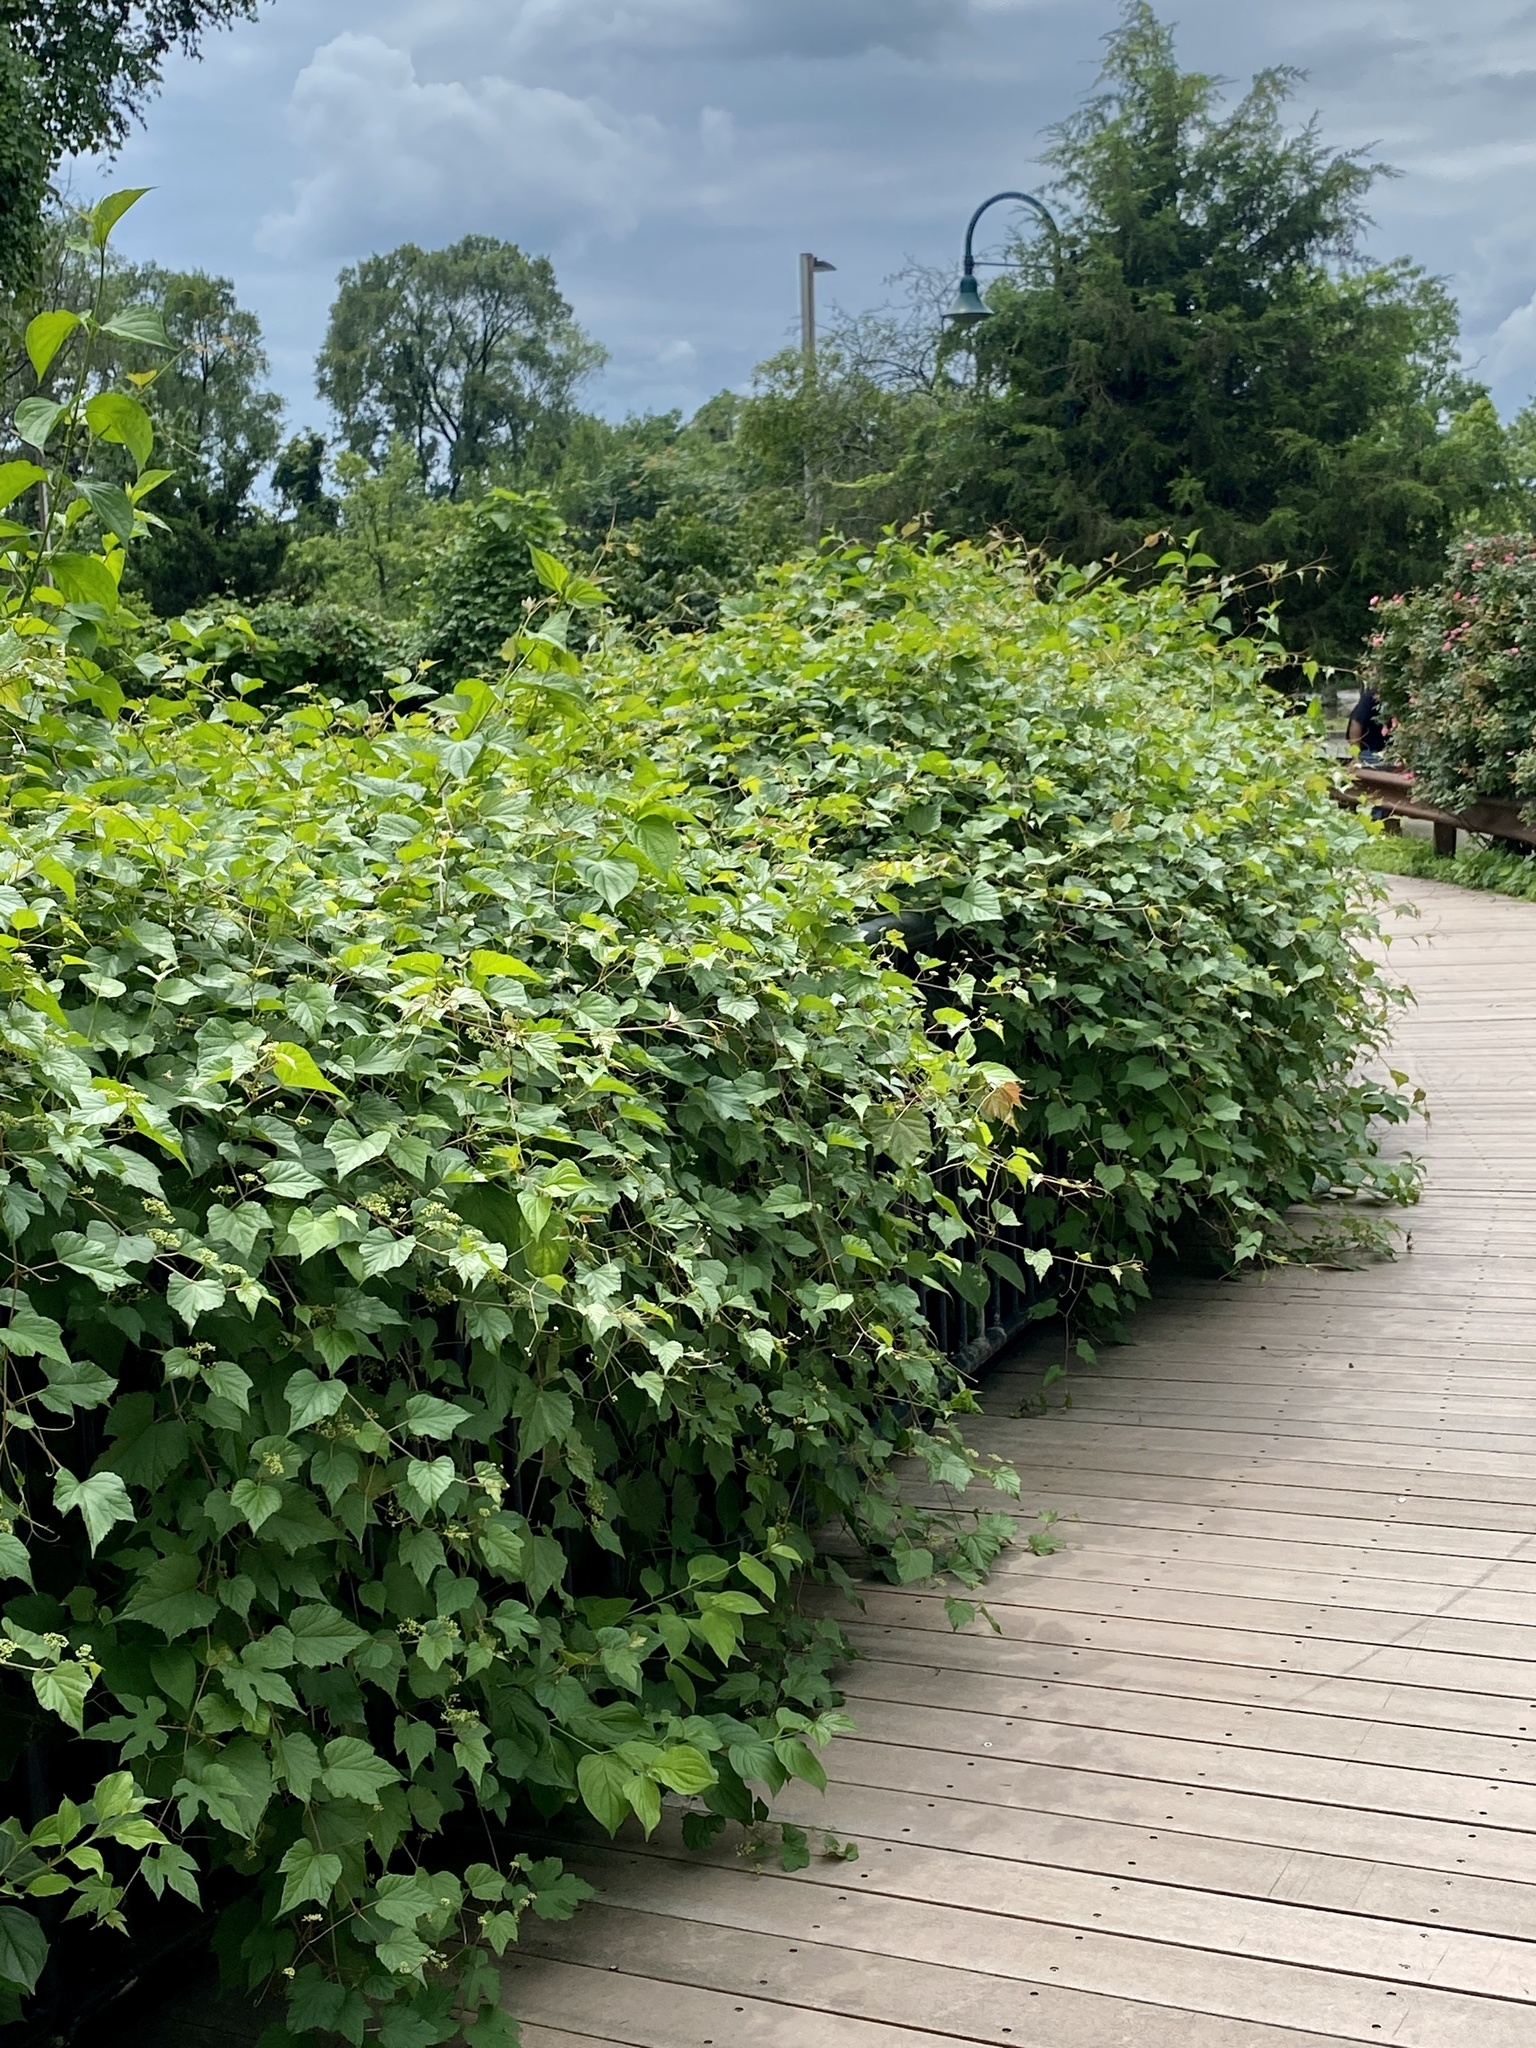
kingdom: Plantae
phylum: Tracheophyta
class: Magnoliopsida
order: Vitales
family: Vitaceae
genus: Ampelopsis
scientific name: Ampelopsis glandulosa
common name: Amur peppervine
